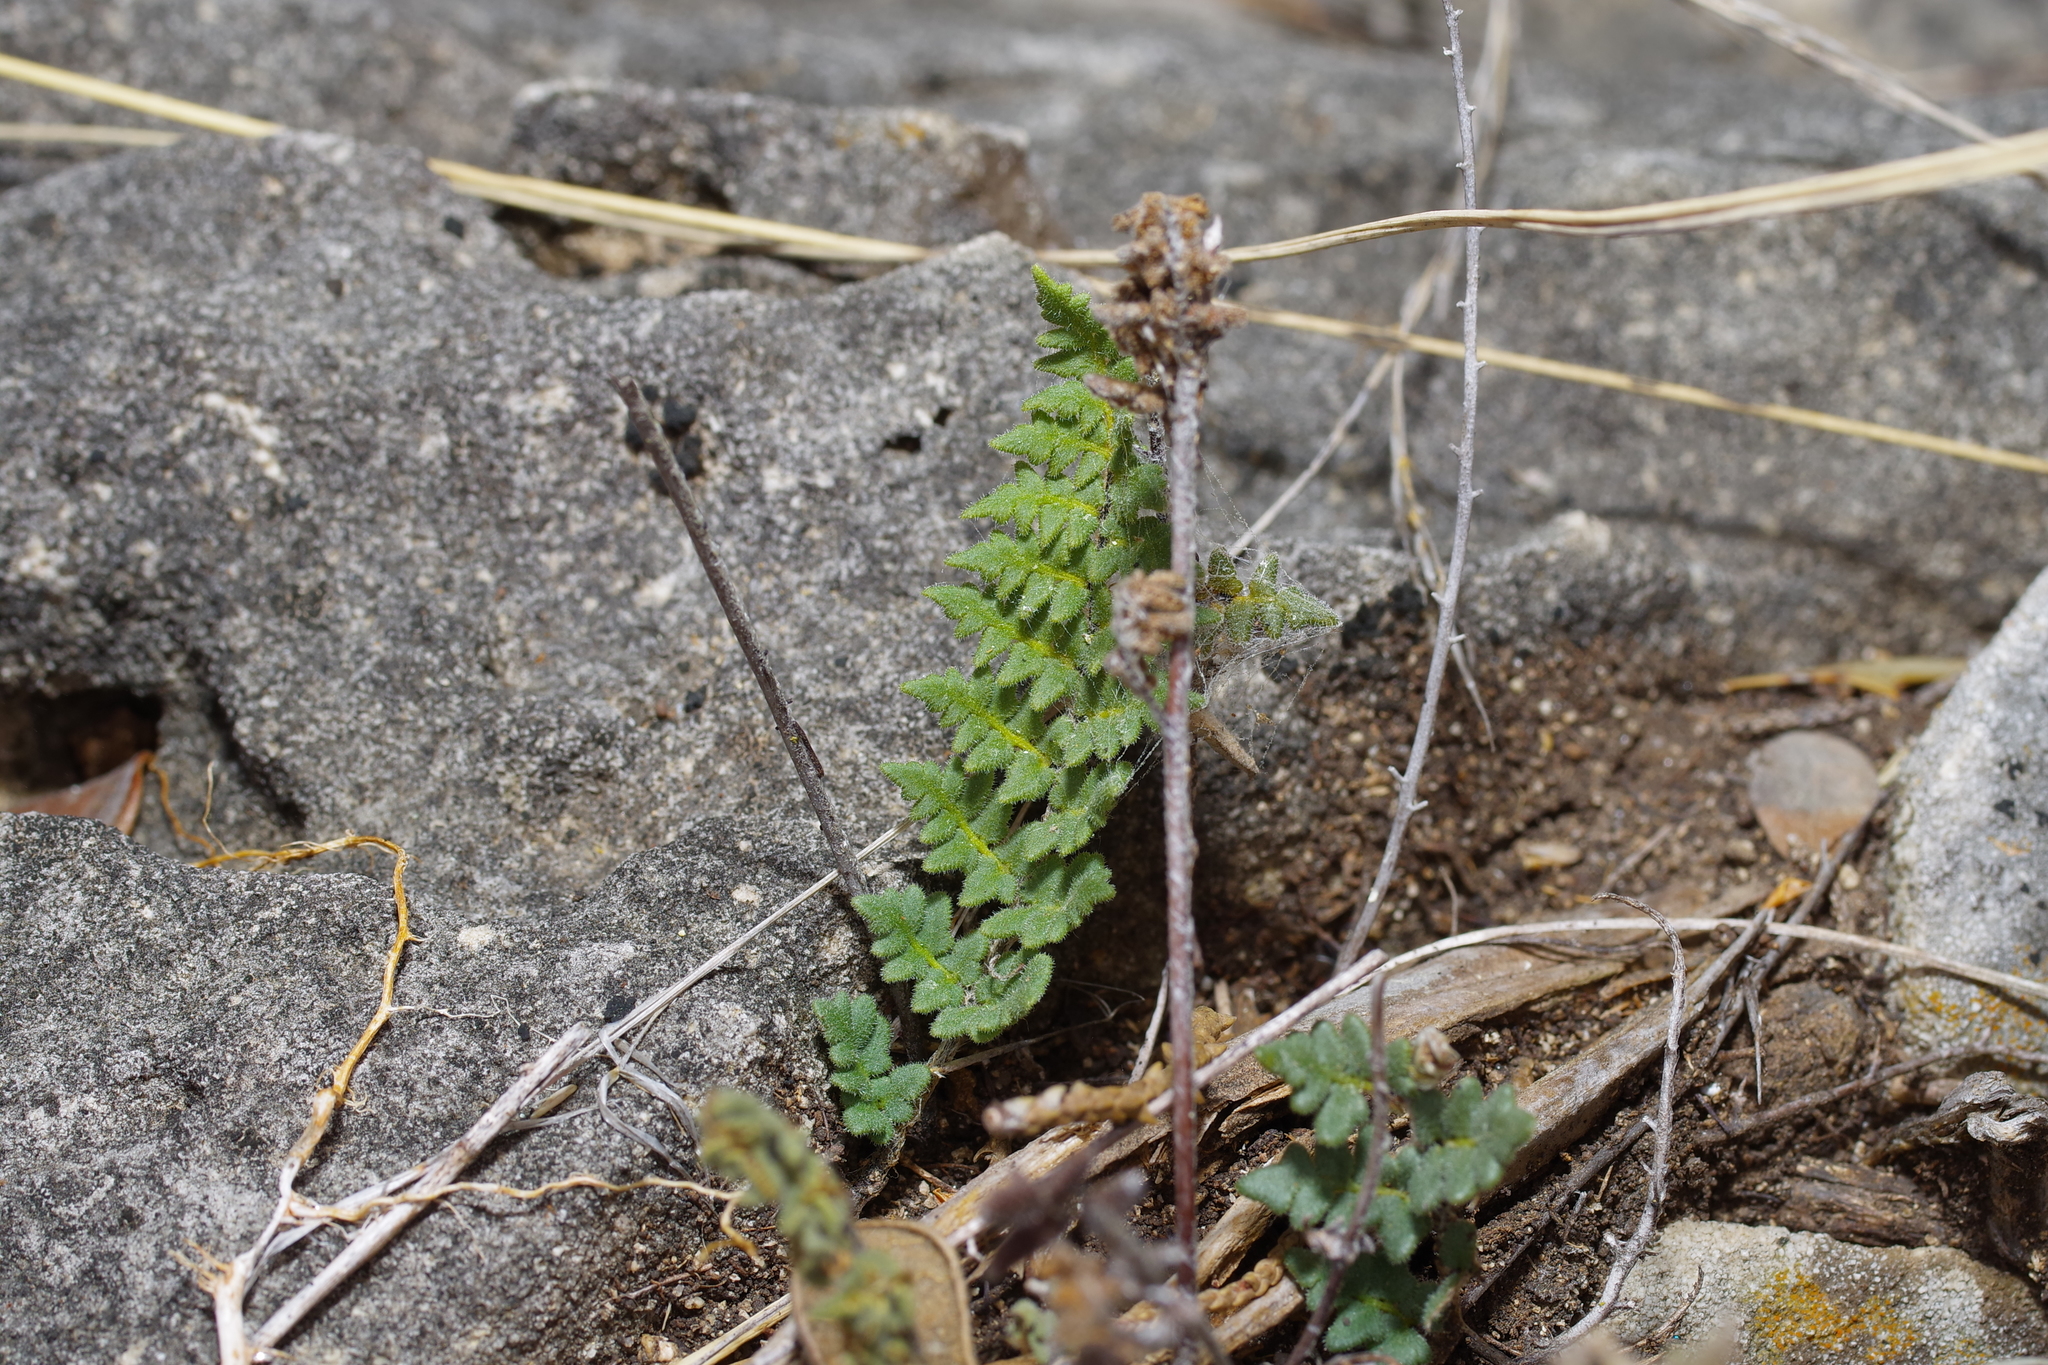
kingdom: Plantae
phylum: Tracheophyta
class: Polypodiopsida
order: Polypodiales
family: Pteridaceae
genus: Myriopteris
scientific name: Myriopteris scabra
